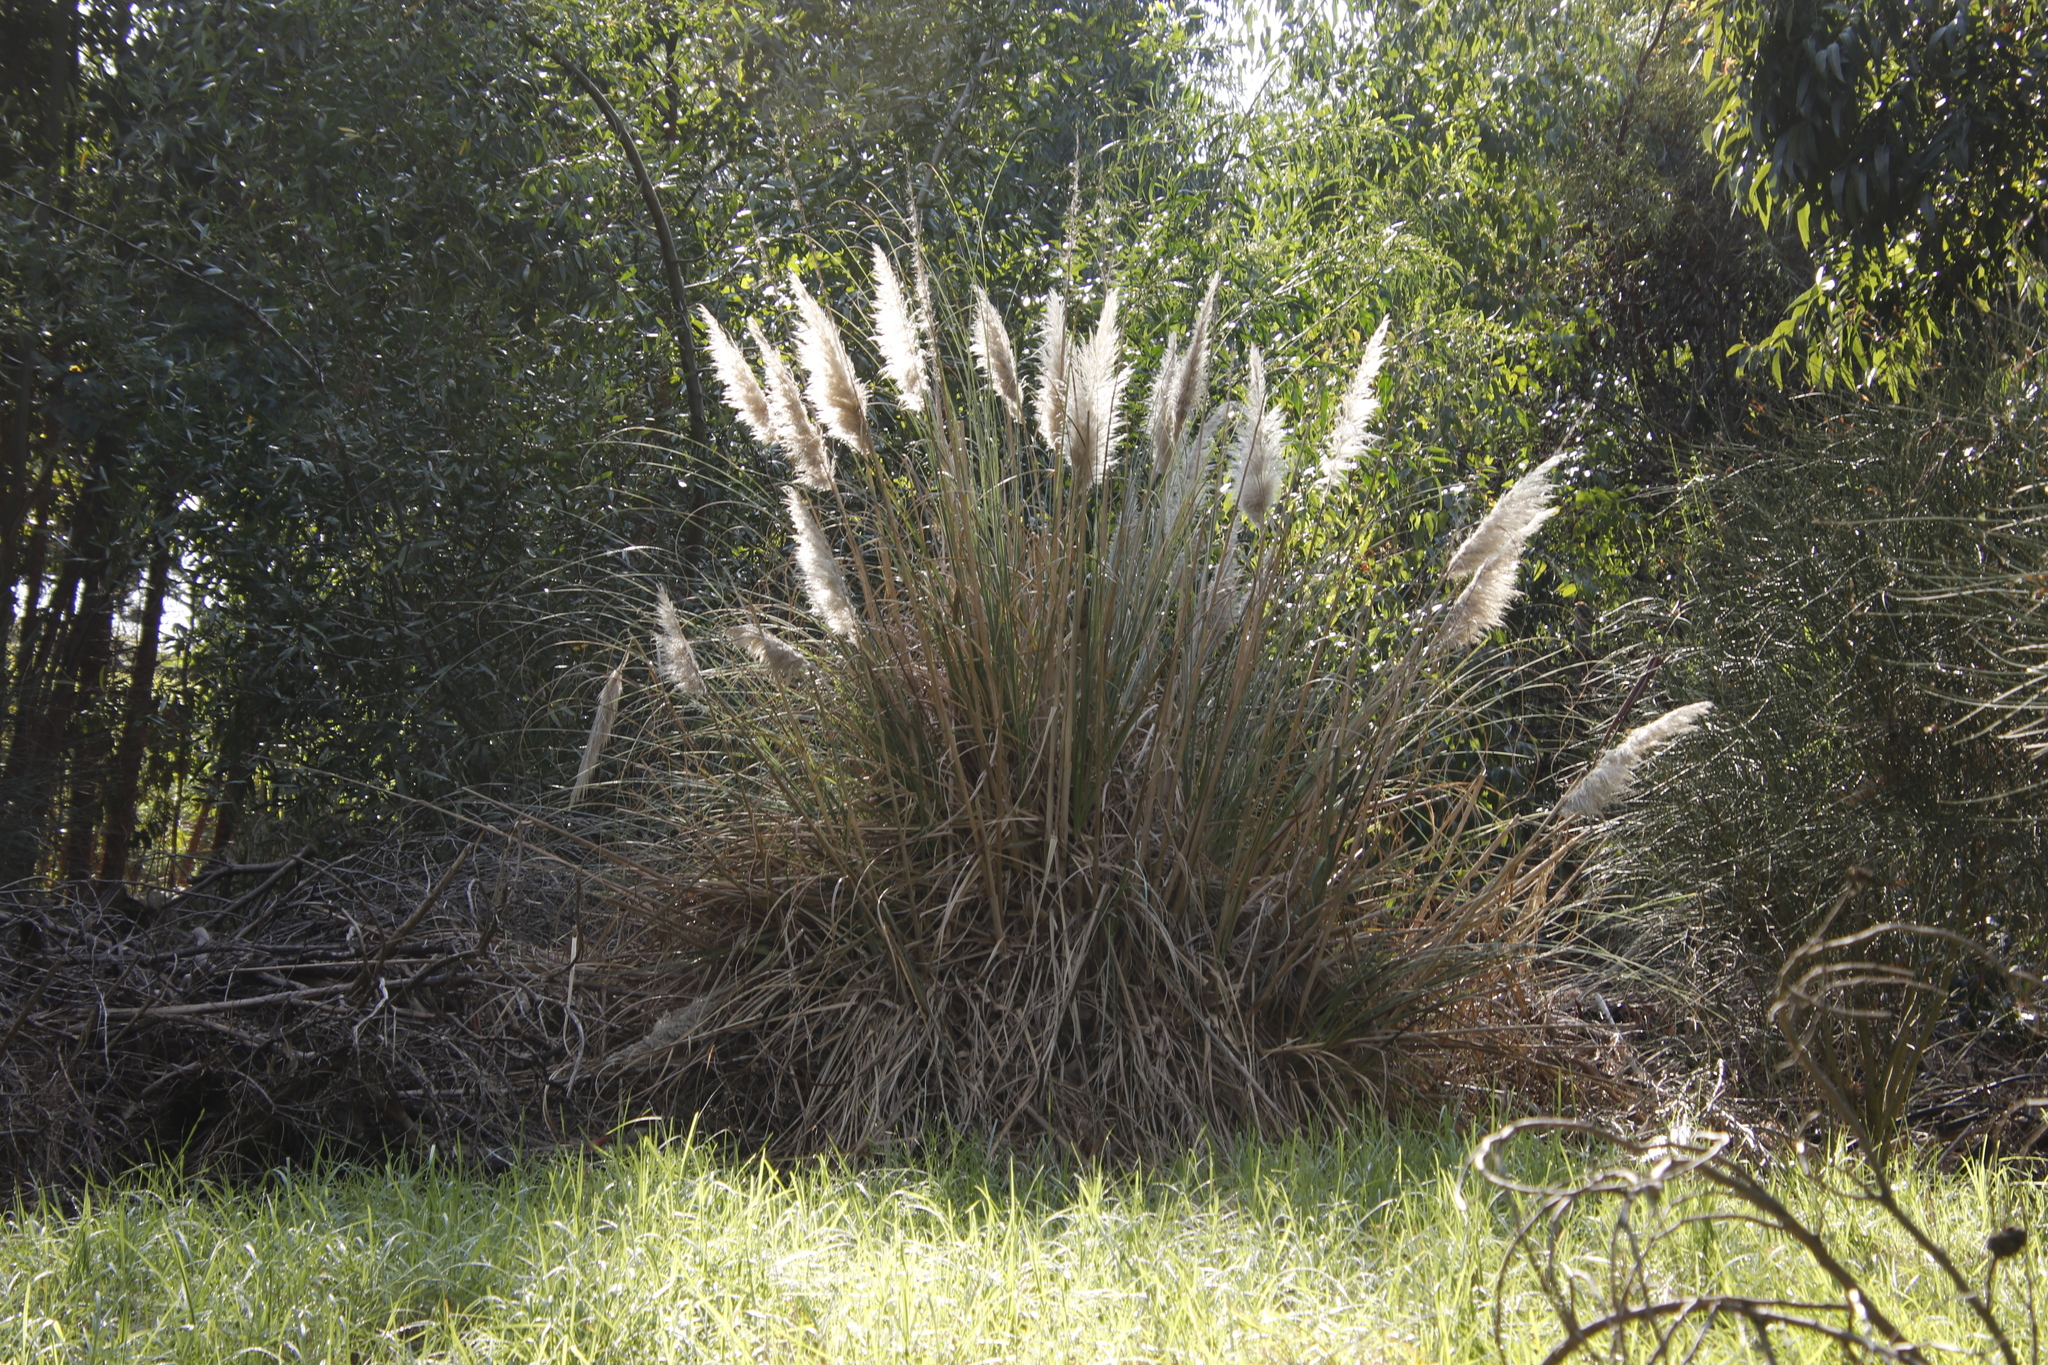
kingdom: Plantae
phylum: Tracheophyta
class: Liliopsida
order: Poales
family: Poaceae
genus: Cortaderia
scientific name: Cortaderia selloana
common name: Uruguayan pampas grass
